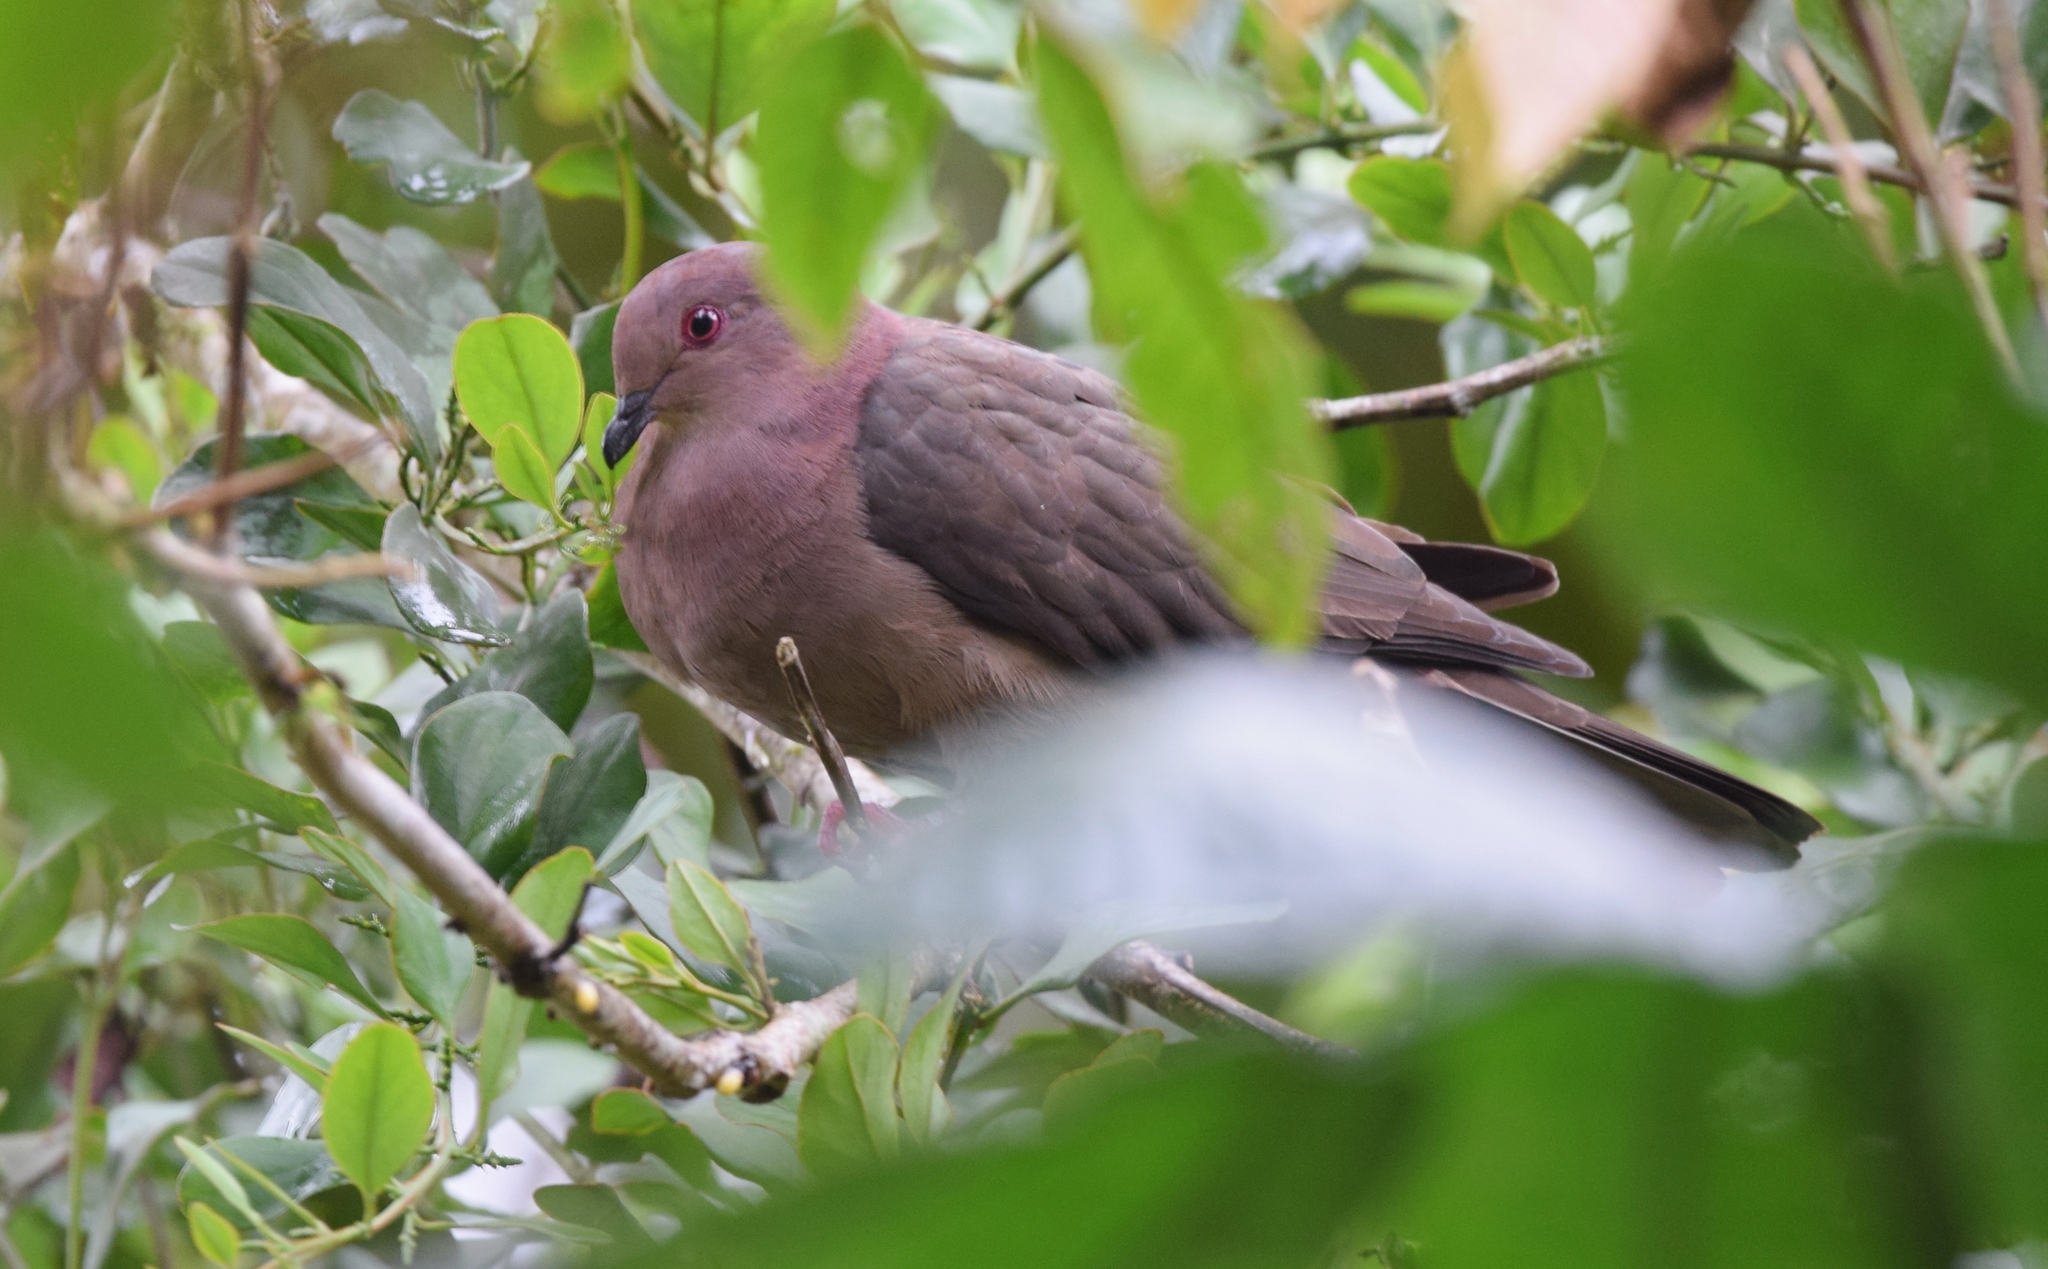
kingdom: Animalia
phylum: Chordata
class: Aves
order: Columbiformes
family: Columbidae
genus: Patagioenas
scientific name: Patagioenas nigrirostris
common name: Short-billed pigeon
